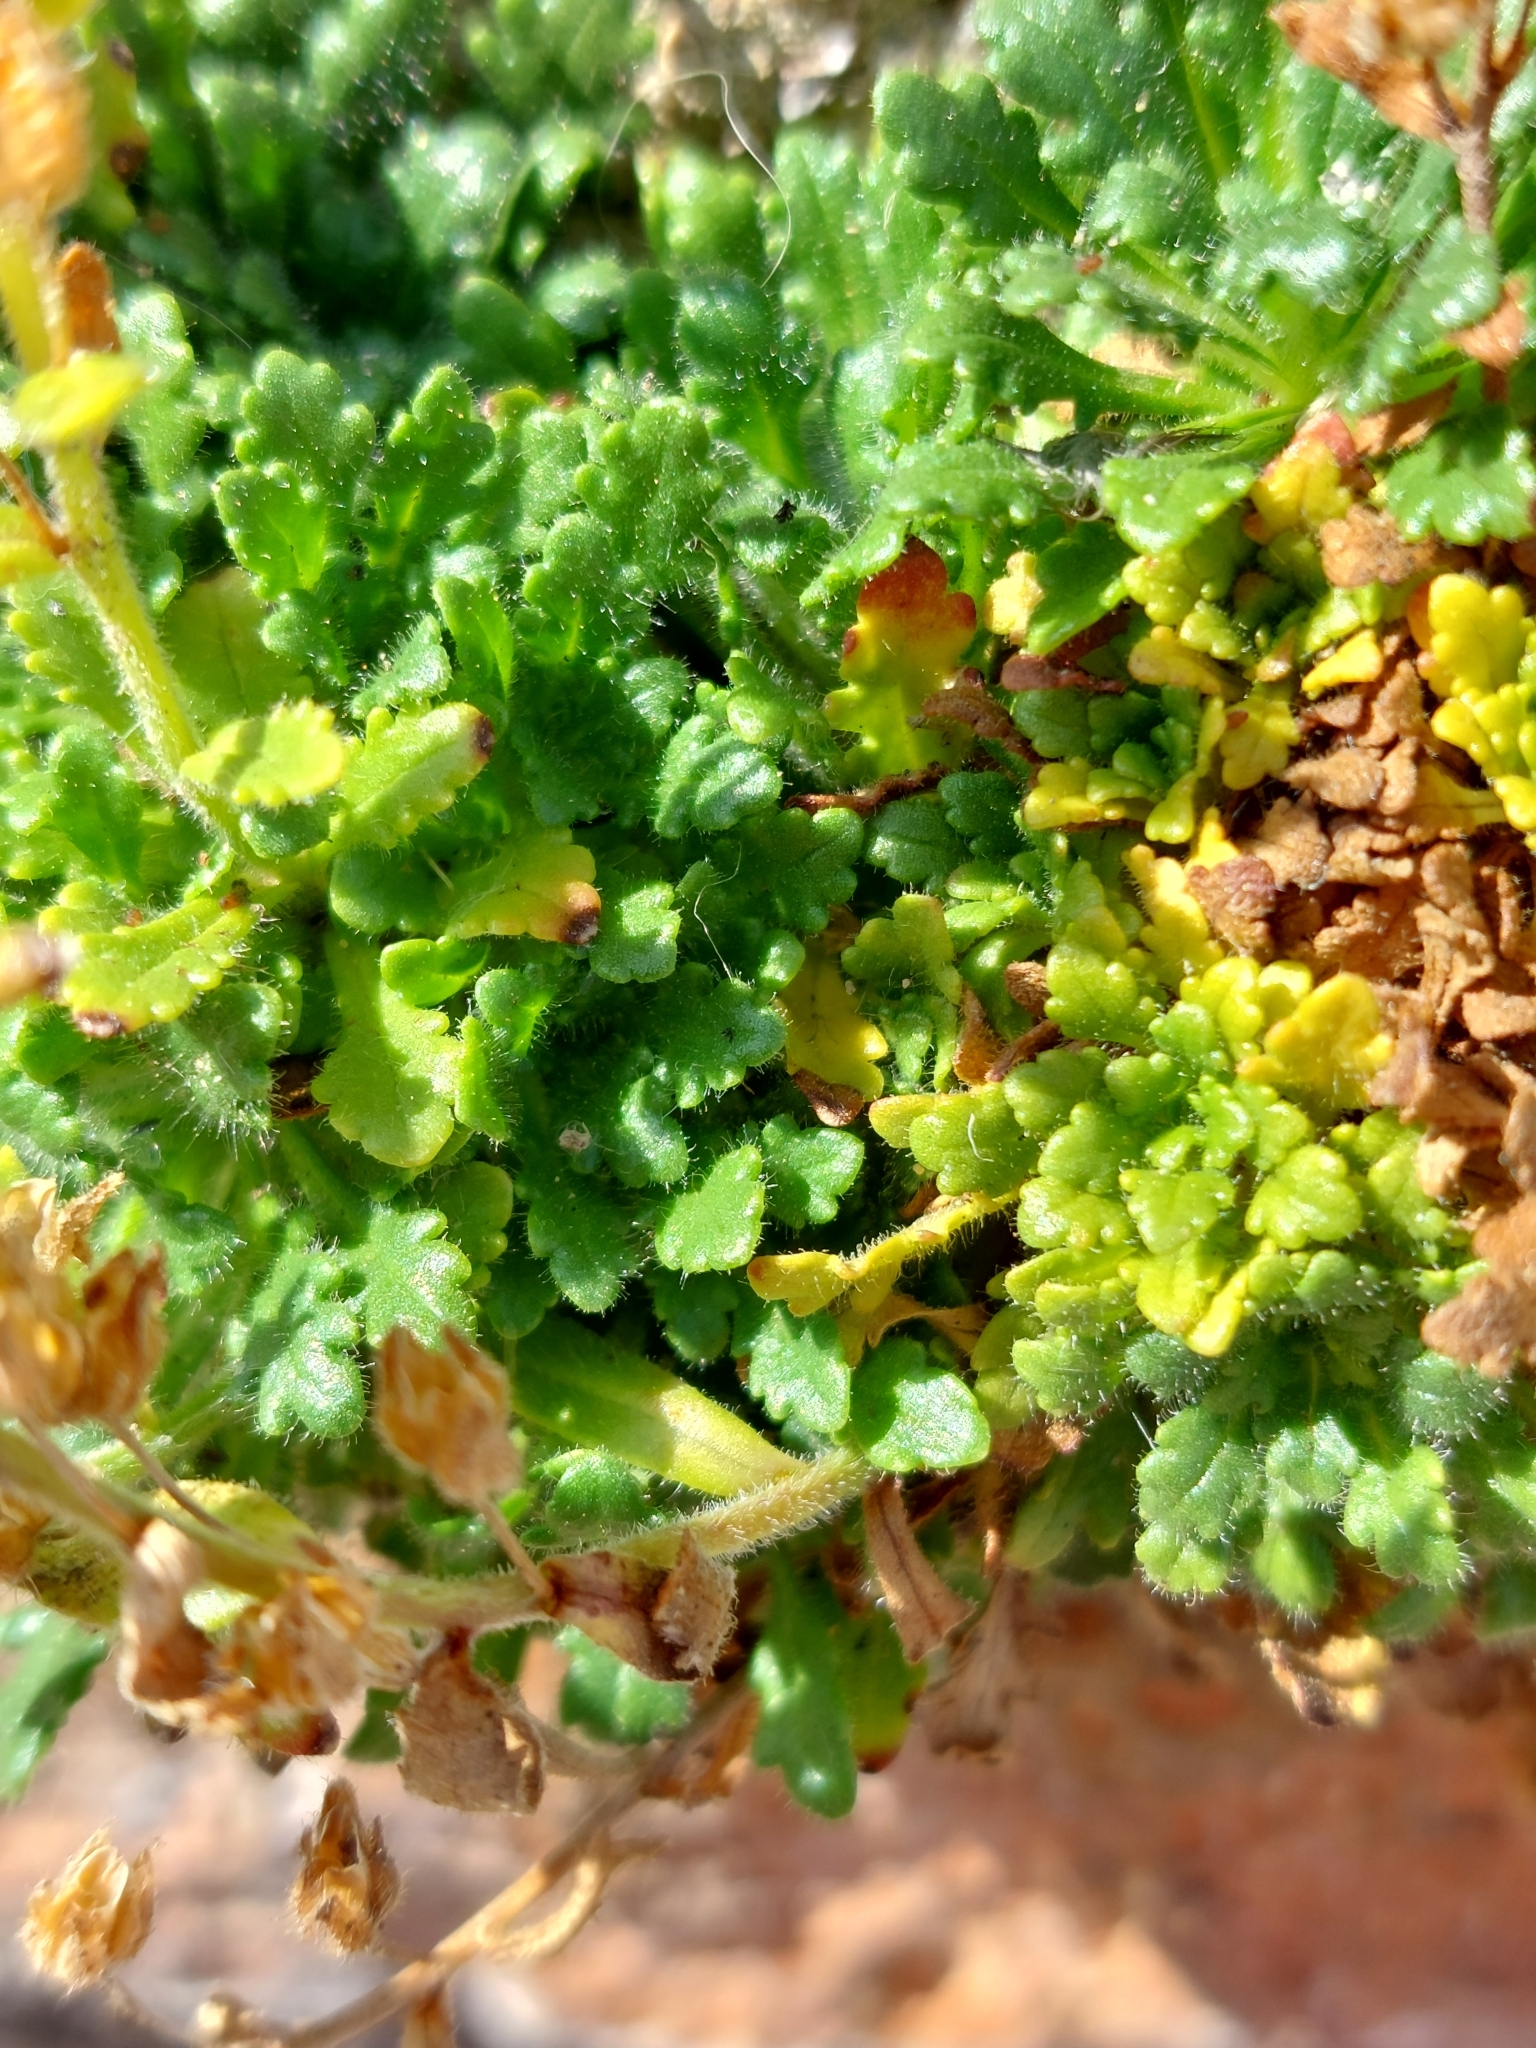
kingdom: Plantae
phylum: Tracheophyta
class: Magnoliopsida
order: Lamiales
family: Plantaginaceae
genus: Erinus
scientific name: Erinus alpinus
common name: Fairy foxglove
